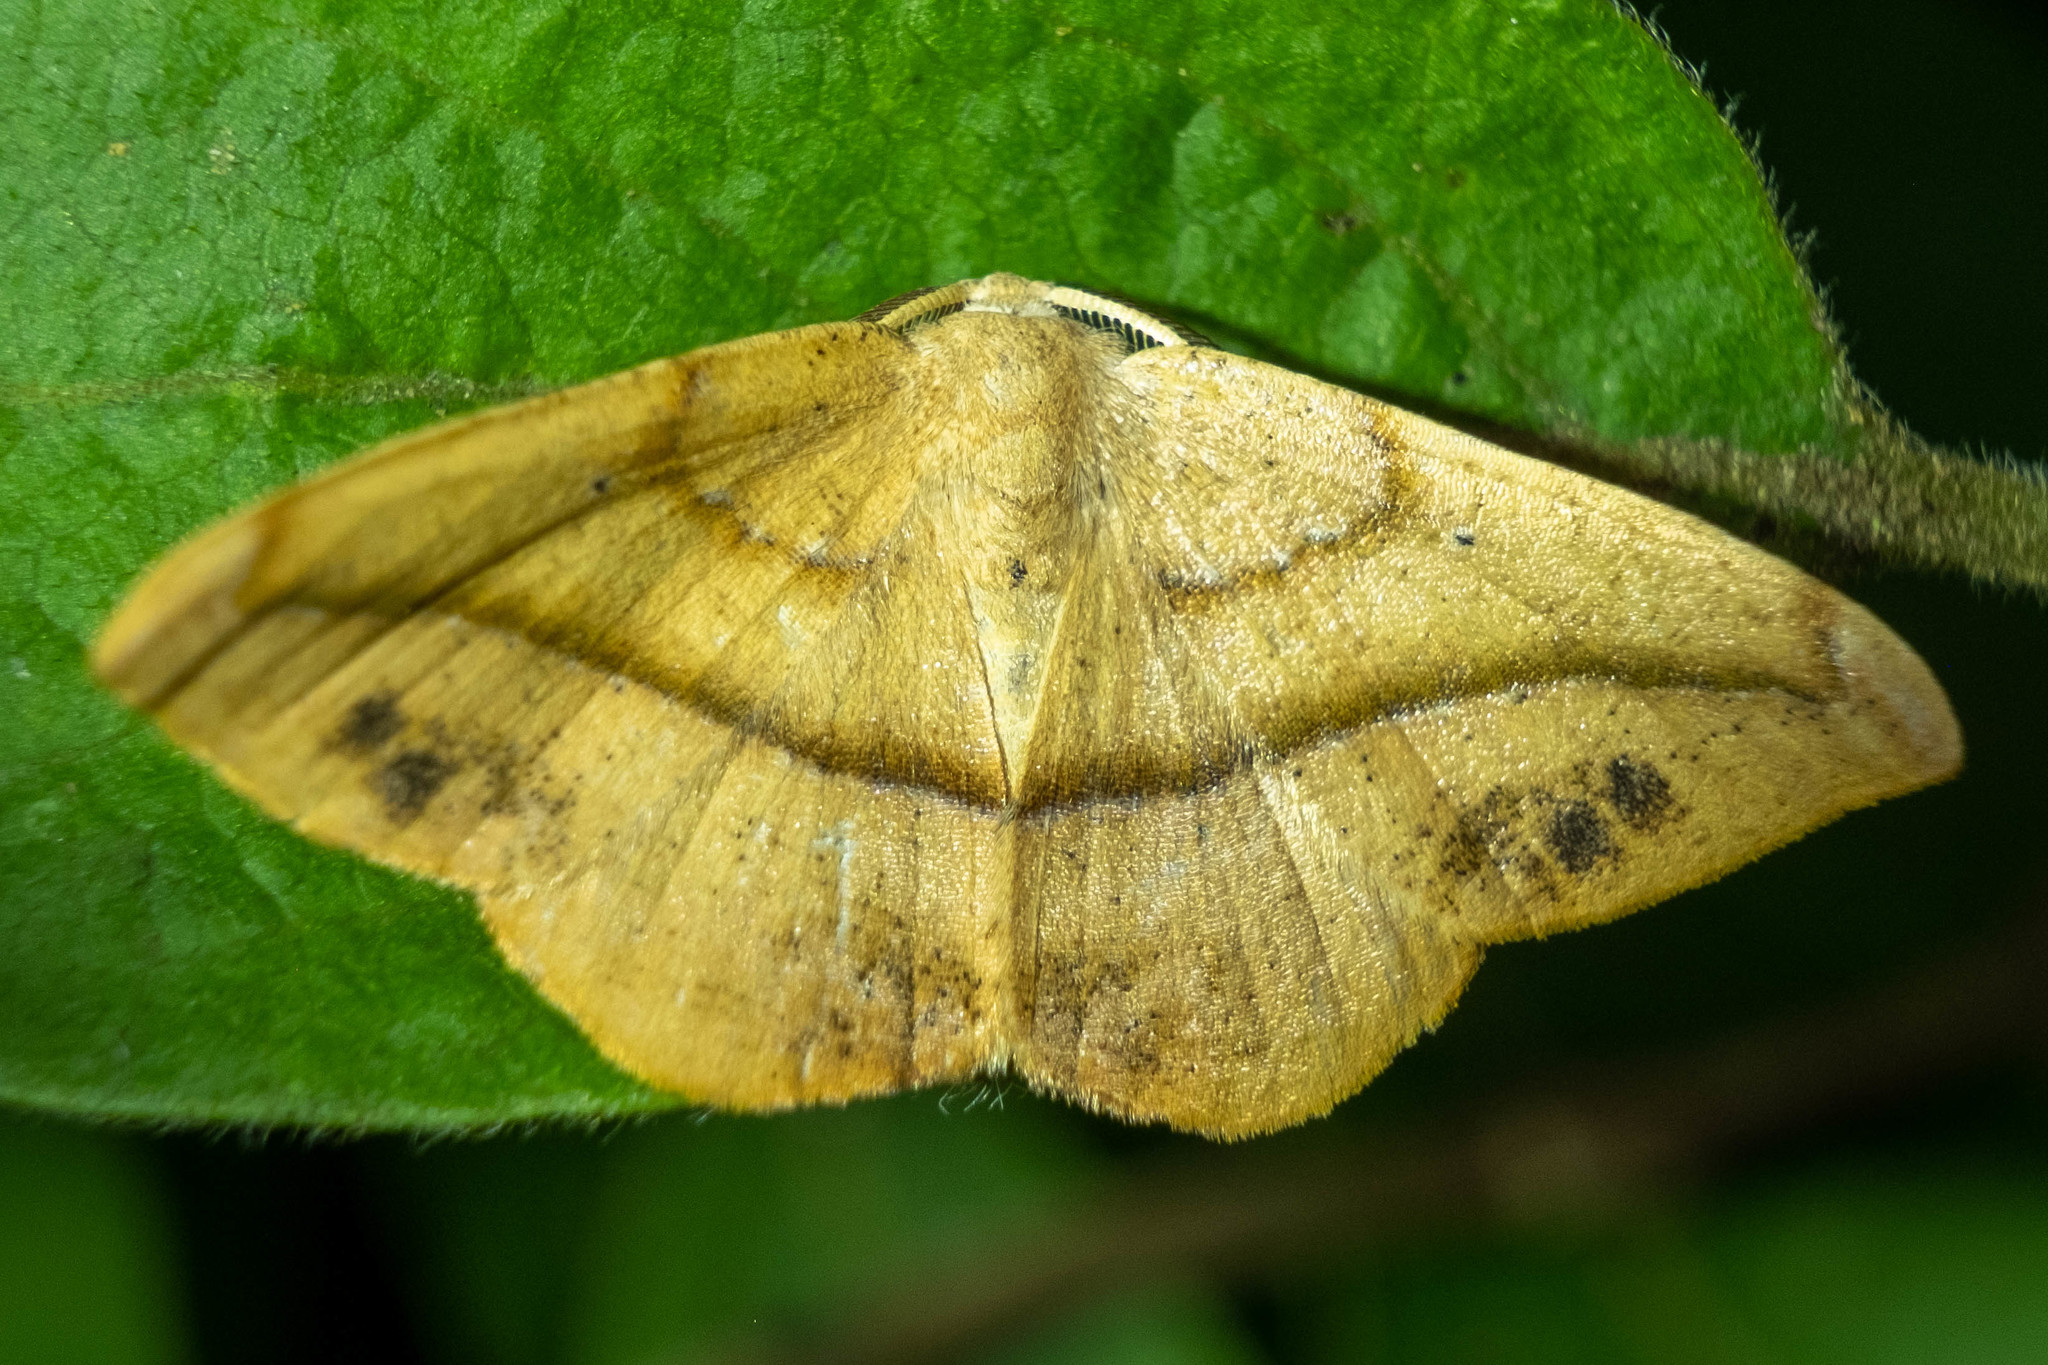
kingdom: Animalia
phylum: Arthropoda
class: Insecta
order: Lepidoptera
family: Geometridae
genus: Patalene
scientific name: Patalene olyzonaria
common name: Juniper geometer moth
